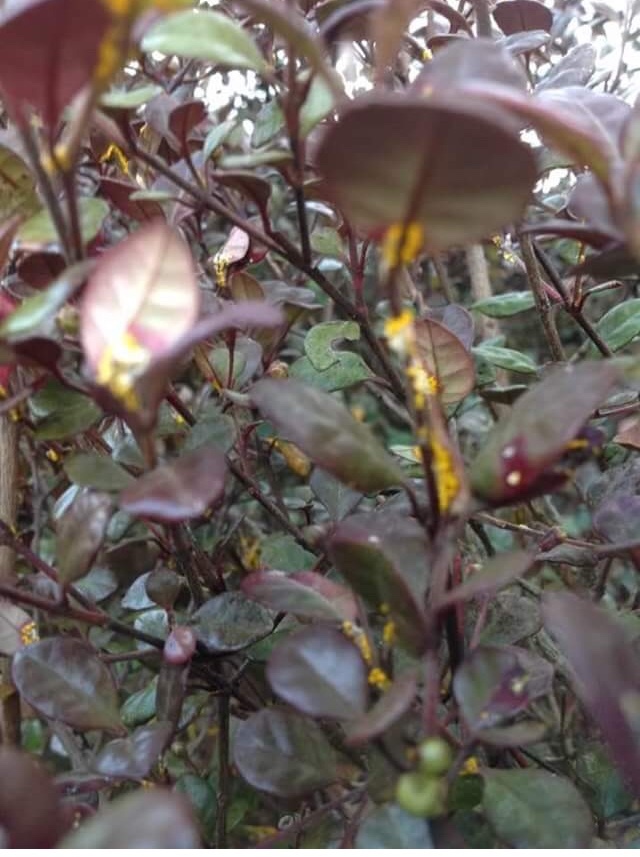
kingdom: Fungi
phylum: Basidiomycota
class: Pucciniomycetes
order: Pucciniales
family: Sphaerophragmiaceae
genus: Austropuccinia
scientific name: Austropuccinia psidii
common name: Myrtle rust
